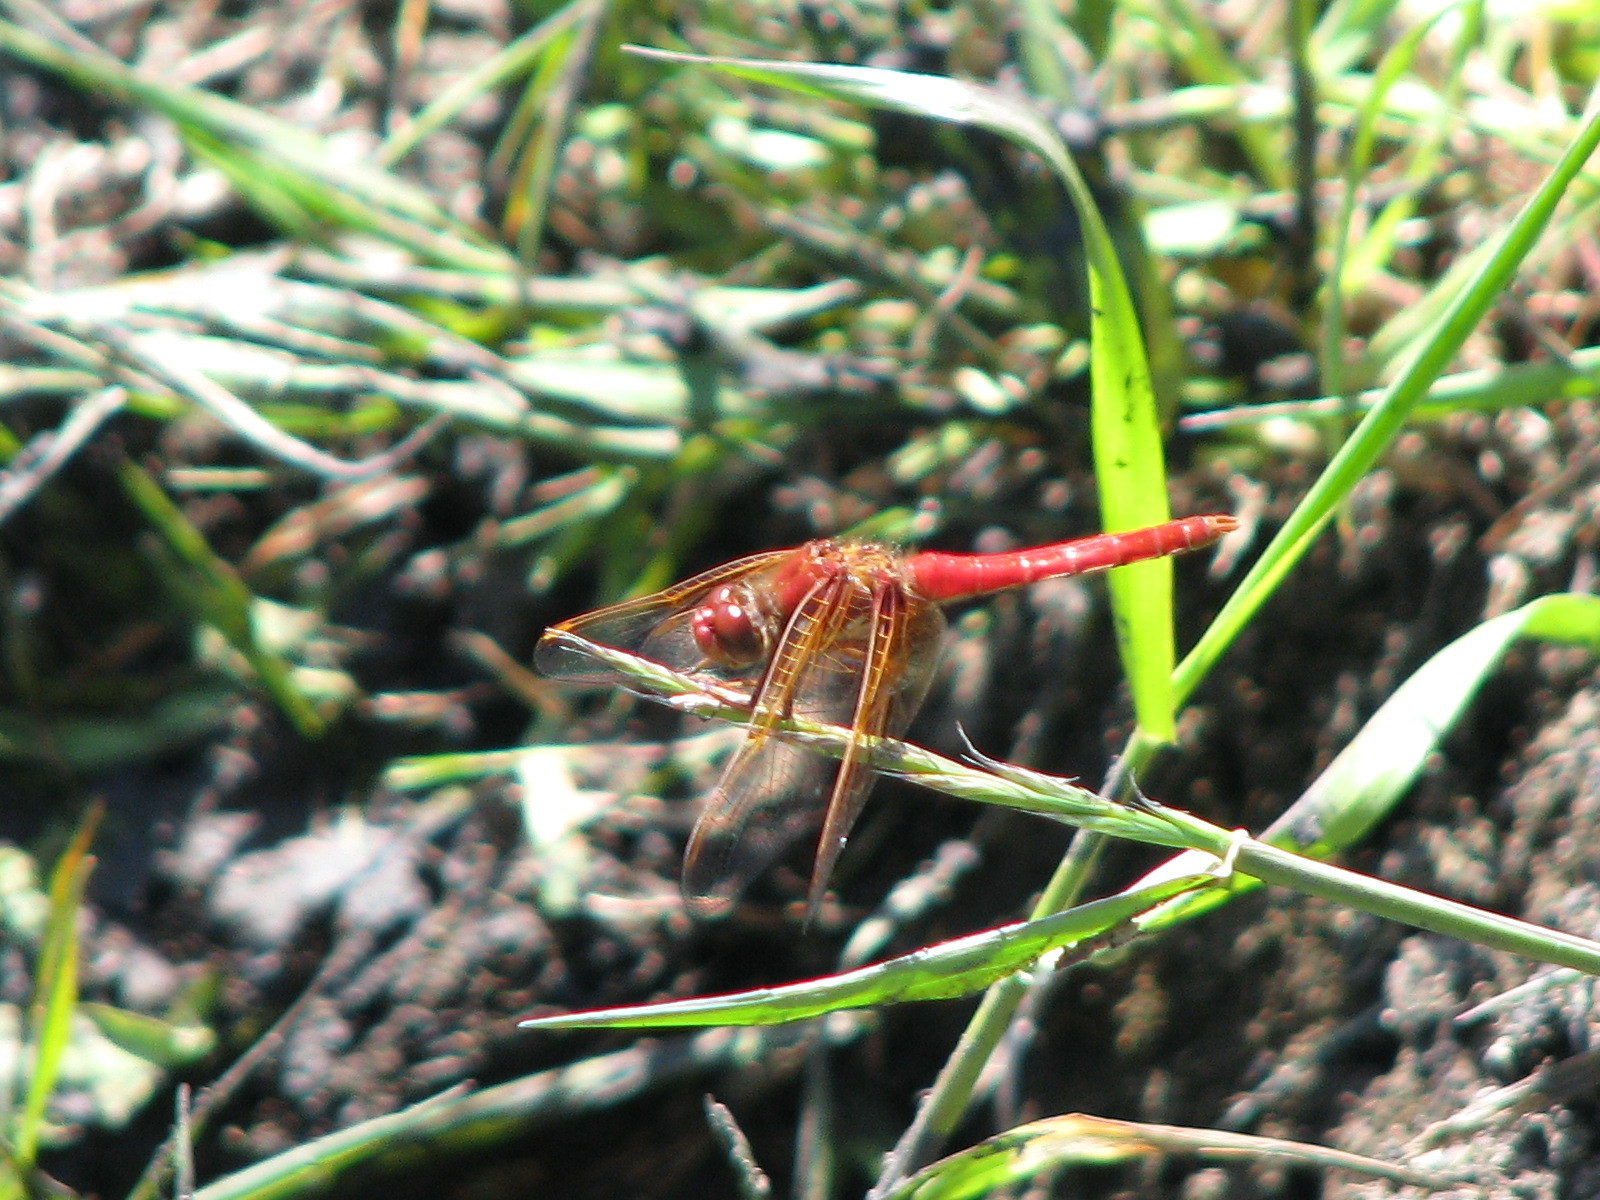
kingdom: Animalia
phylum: Arthropoda
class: Insecta
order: Odonata
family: Libellulidae
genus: Sympetrum
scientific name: Sympetrum illotum
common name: Cardinal meadowhawk
